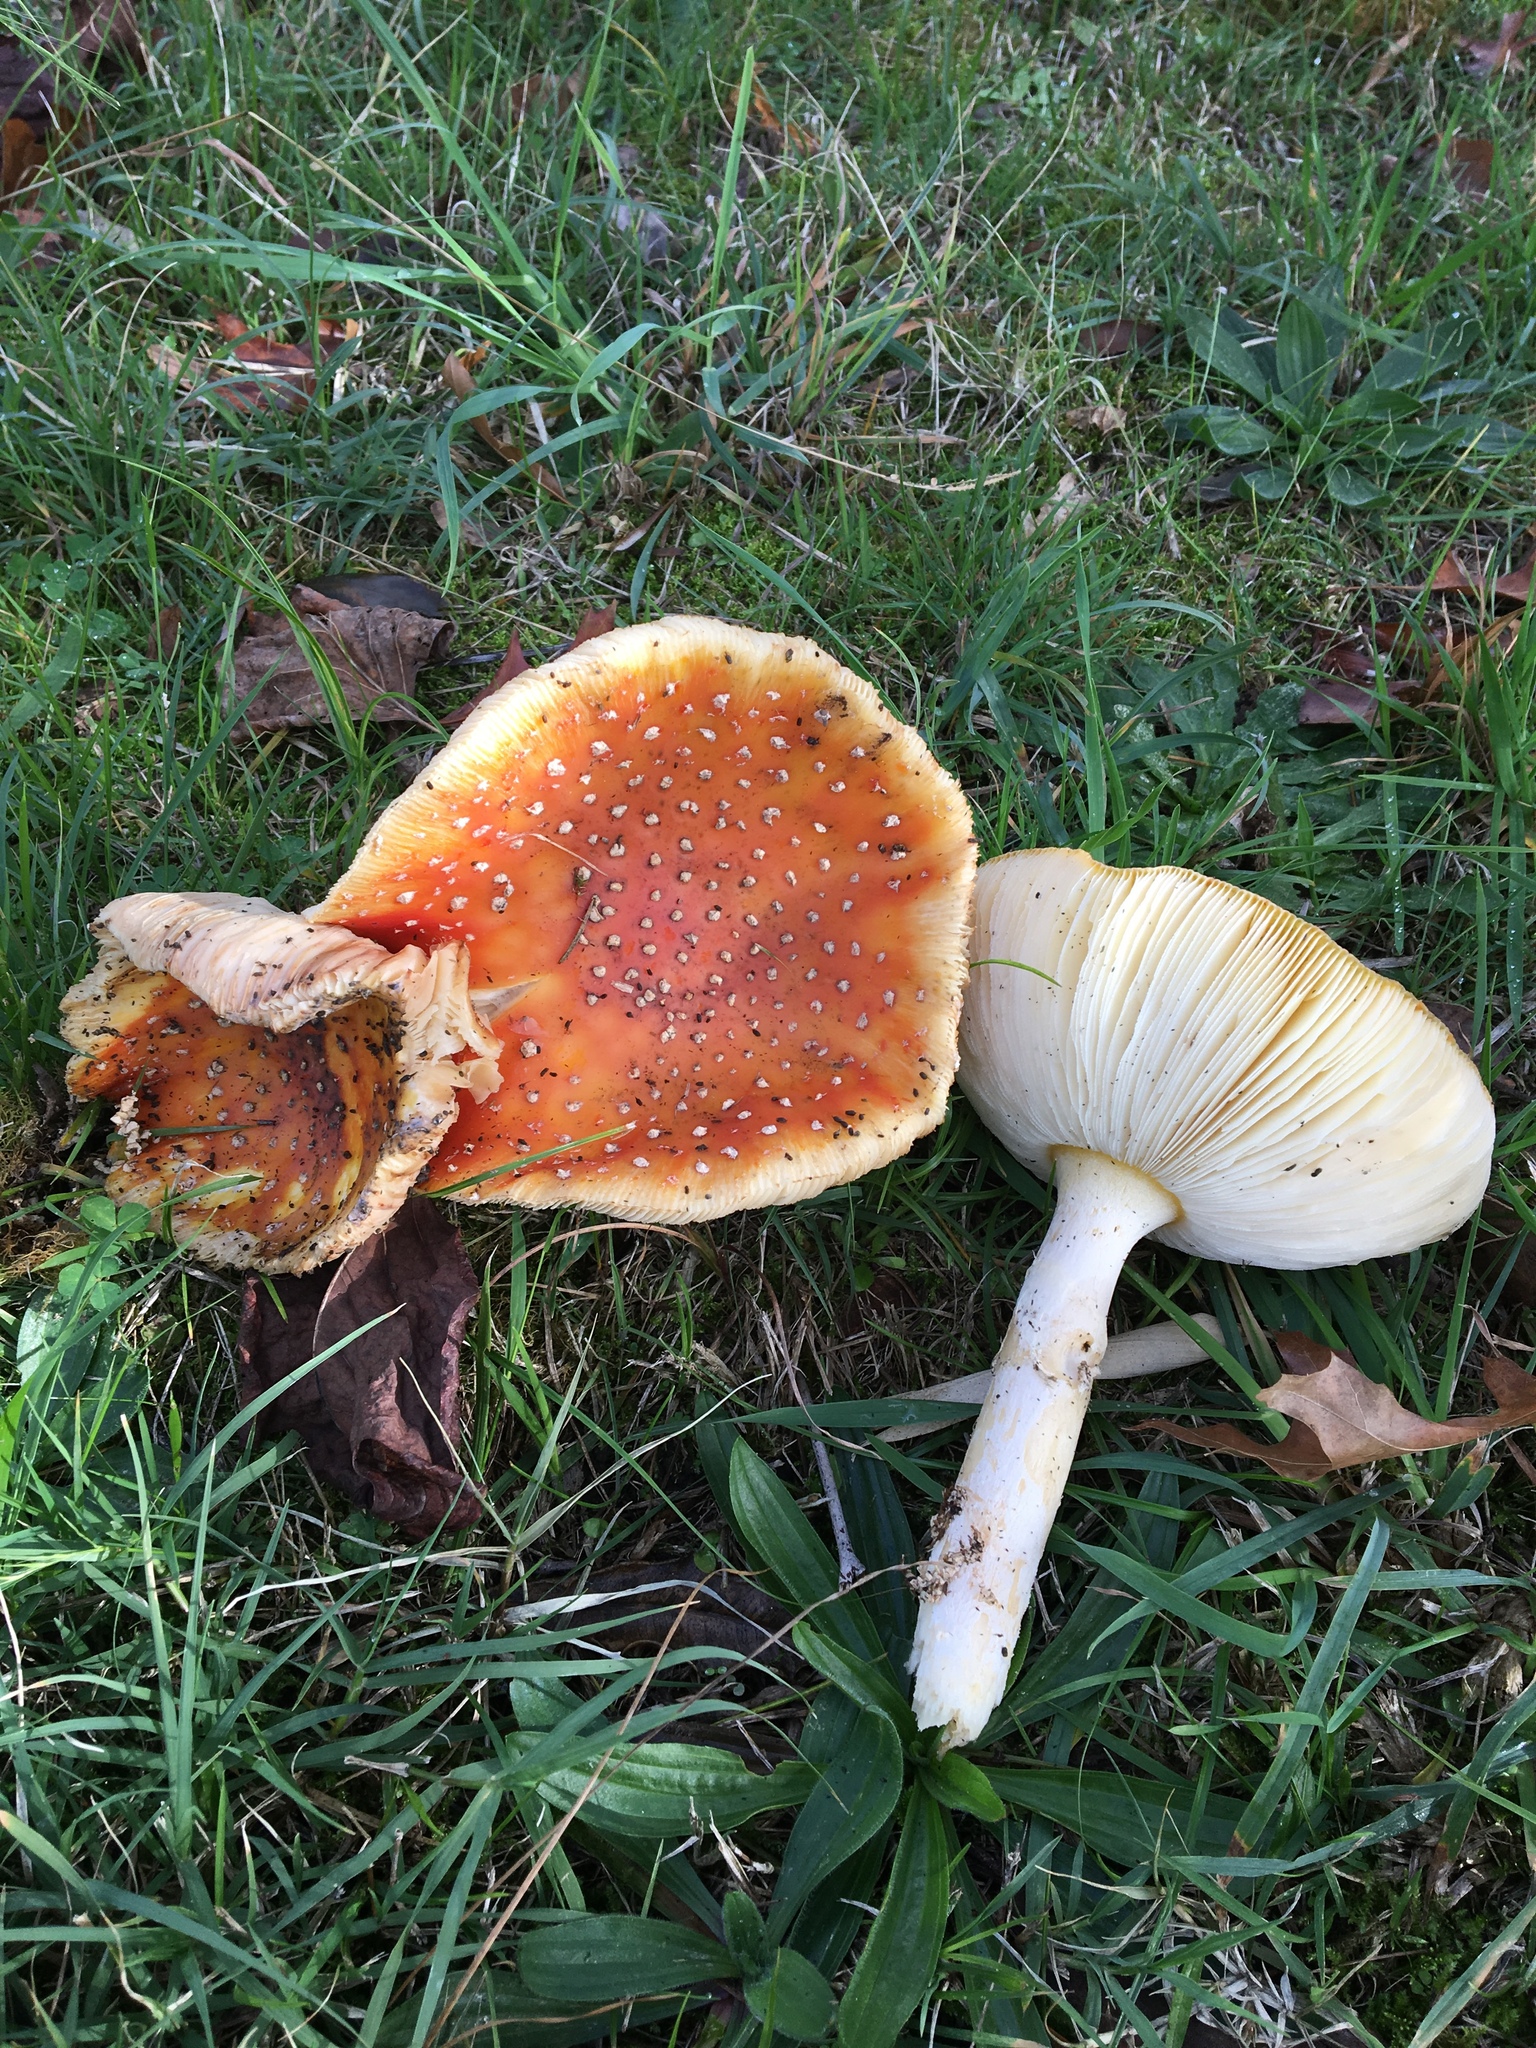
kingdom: Fungi
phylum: Basidiomycota
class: Agaricomycetes
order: Agaricales
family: Amanitaceae
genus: Amanita
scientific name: Amanita muscaria
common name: Fly agaric
